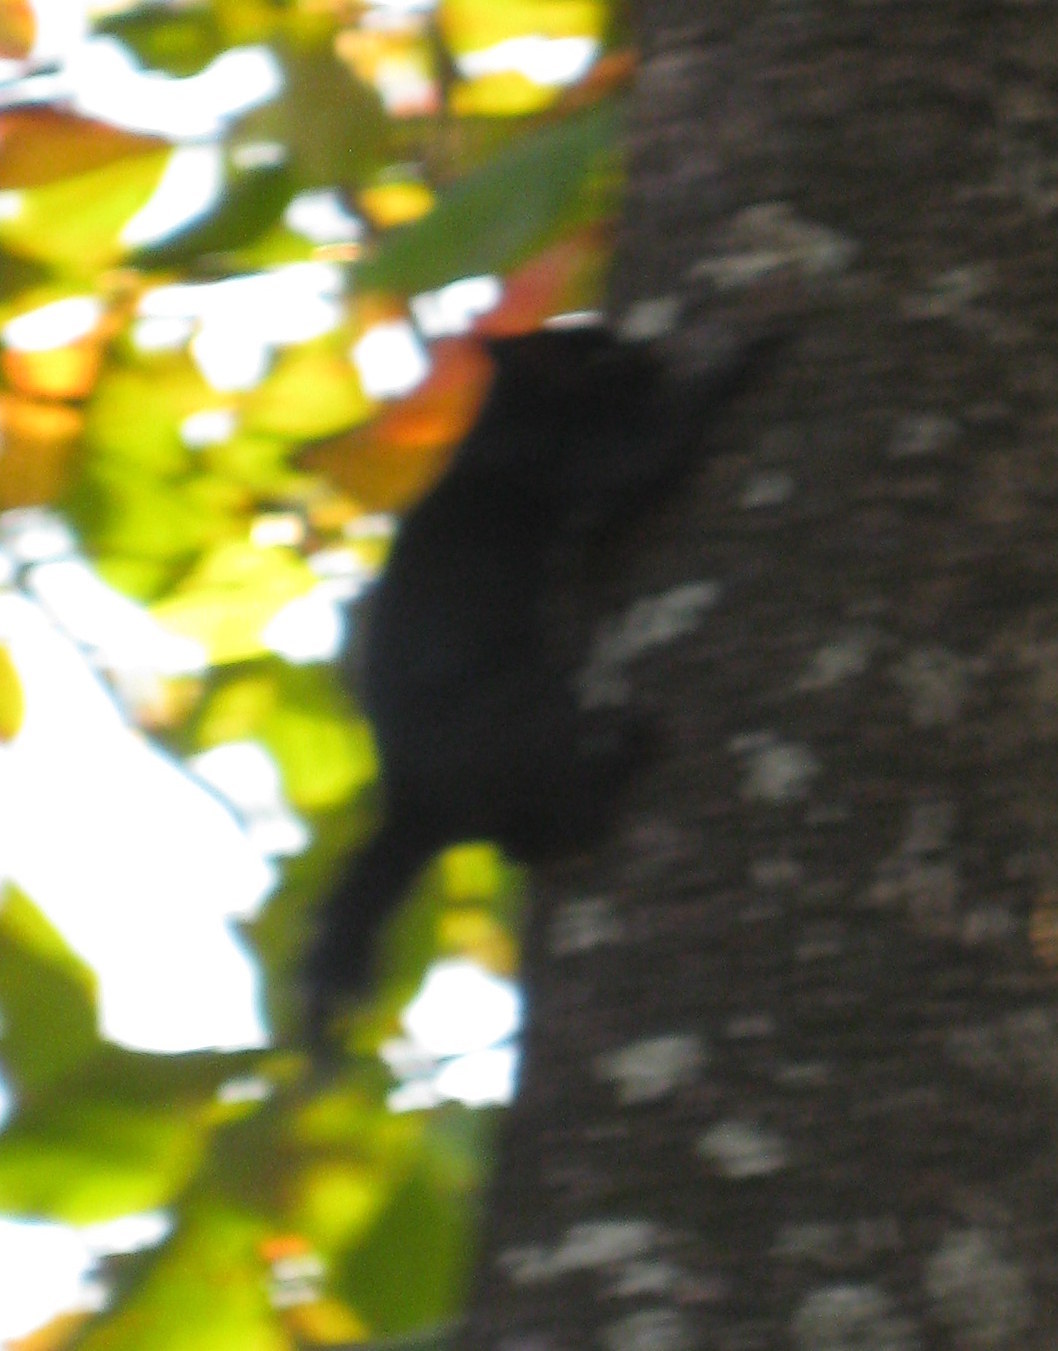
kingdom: Animalia
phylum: Chordata
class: Mammalia
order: Rodentia
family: Sciuridae
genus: Sciurus
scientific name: Sciurus aureogaster
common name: Red-bellied squirrel
